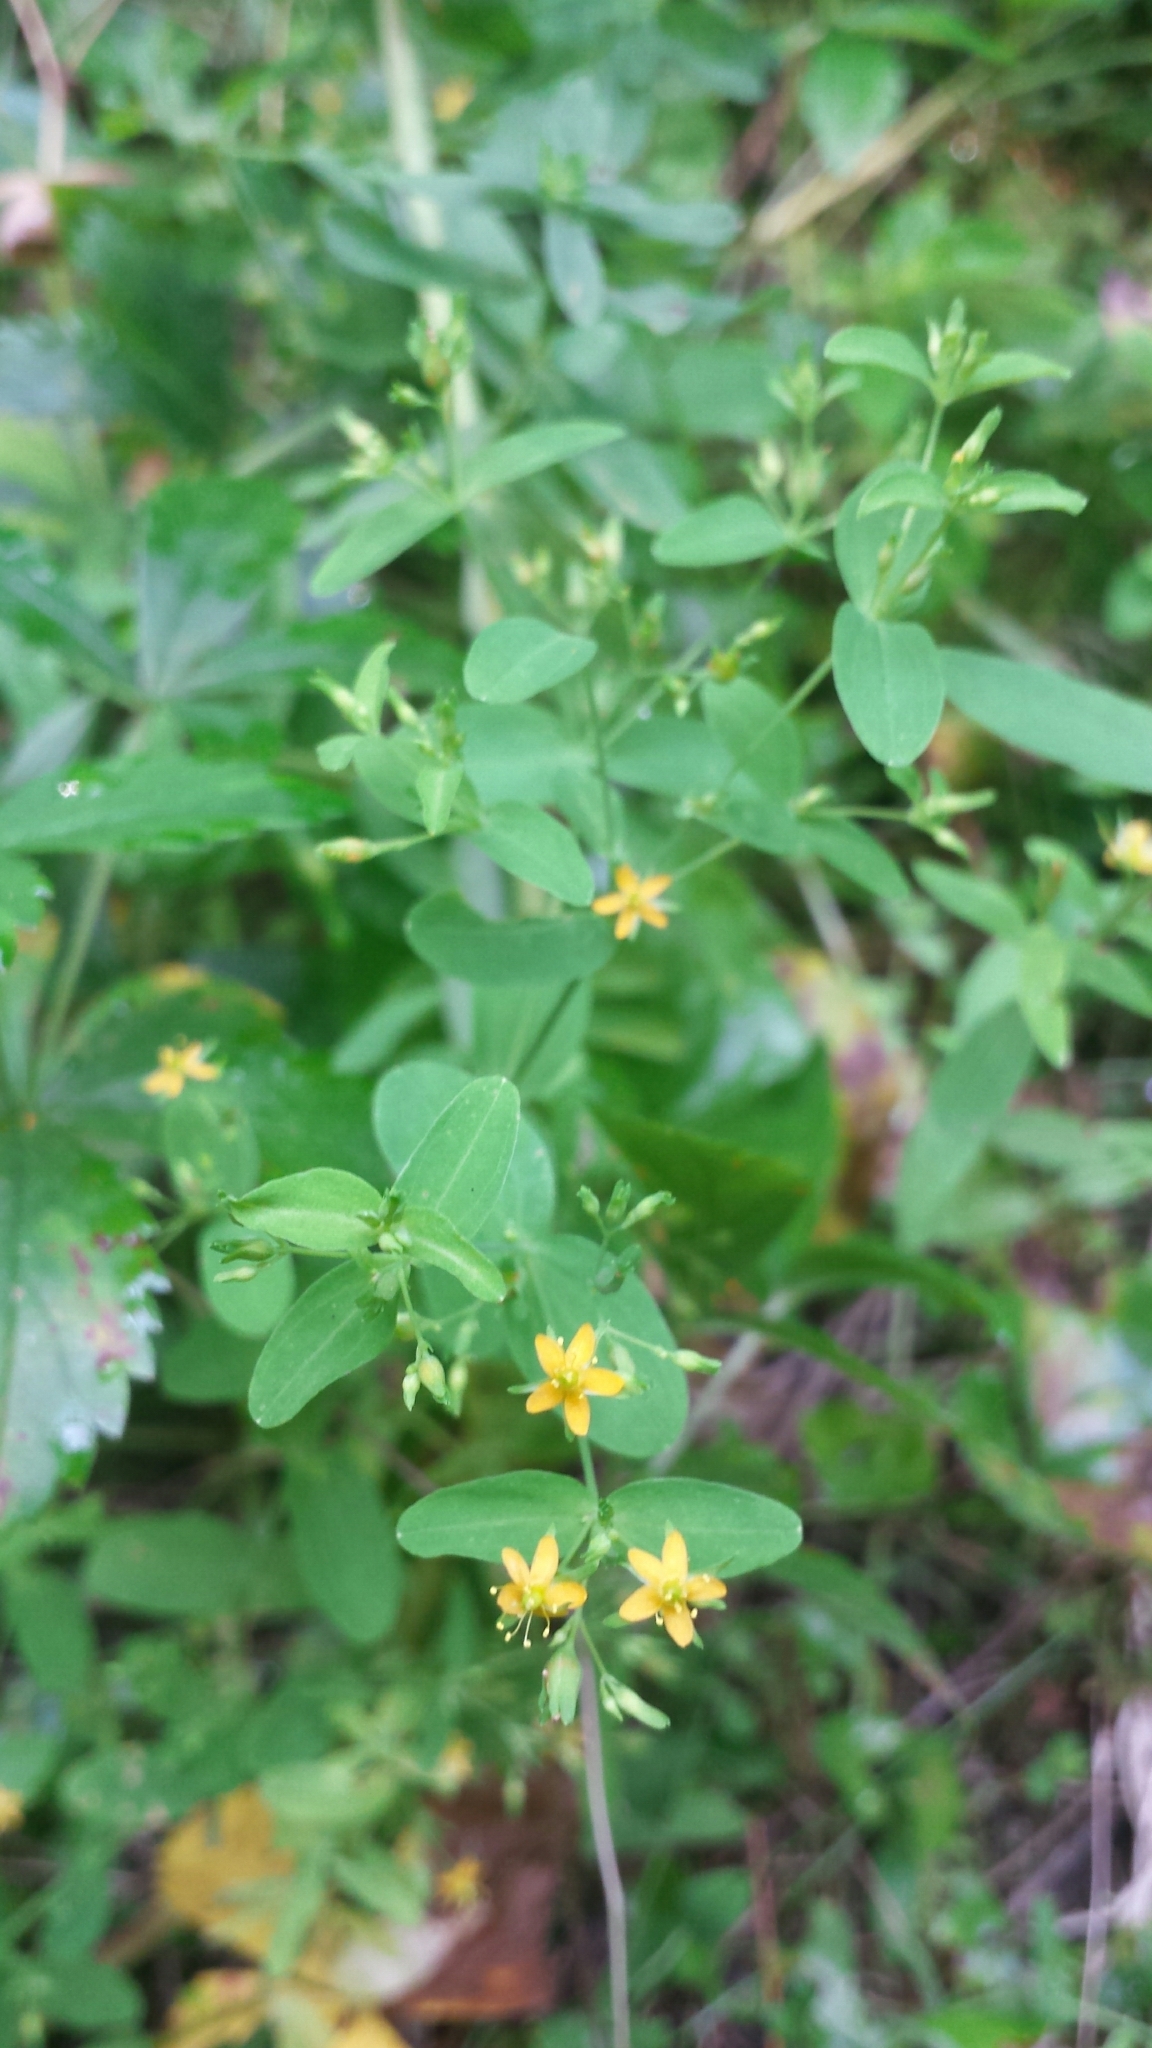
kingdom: Plantae
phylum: Tracheophyta
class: Magnoliopsida
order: Malpighiales
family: Hypericaceae
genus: Hypericum
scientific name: Hypericum mutilum
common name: Dwarf st. john's-wort
